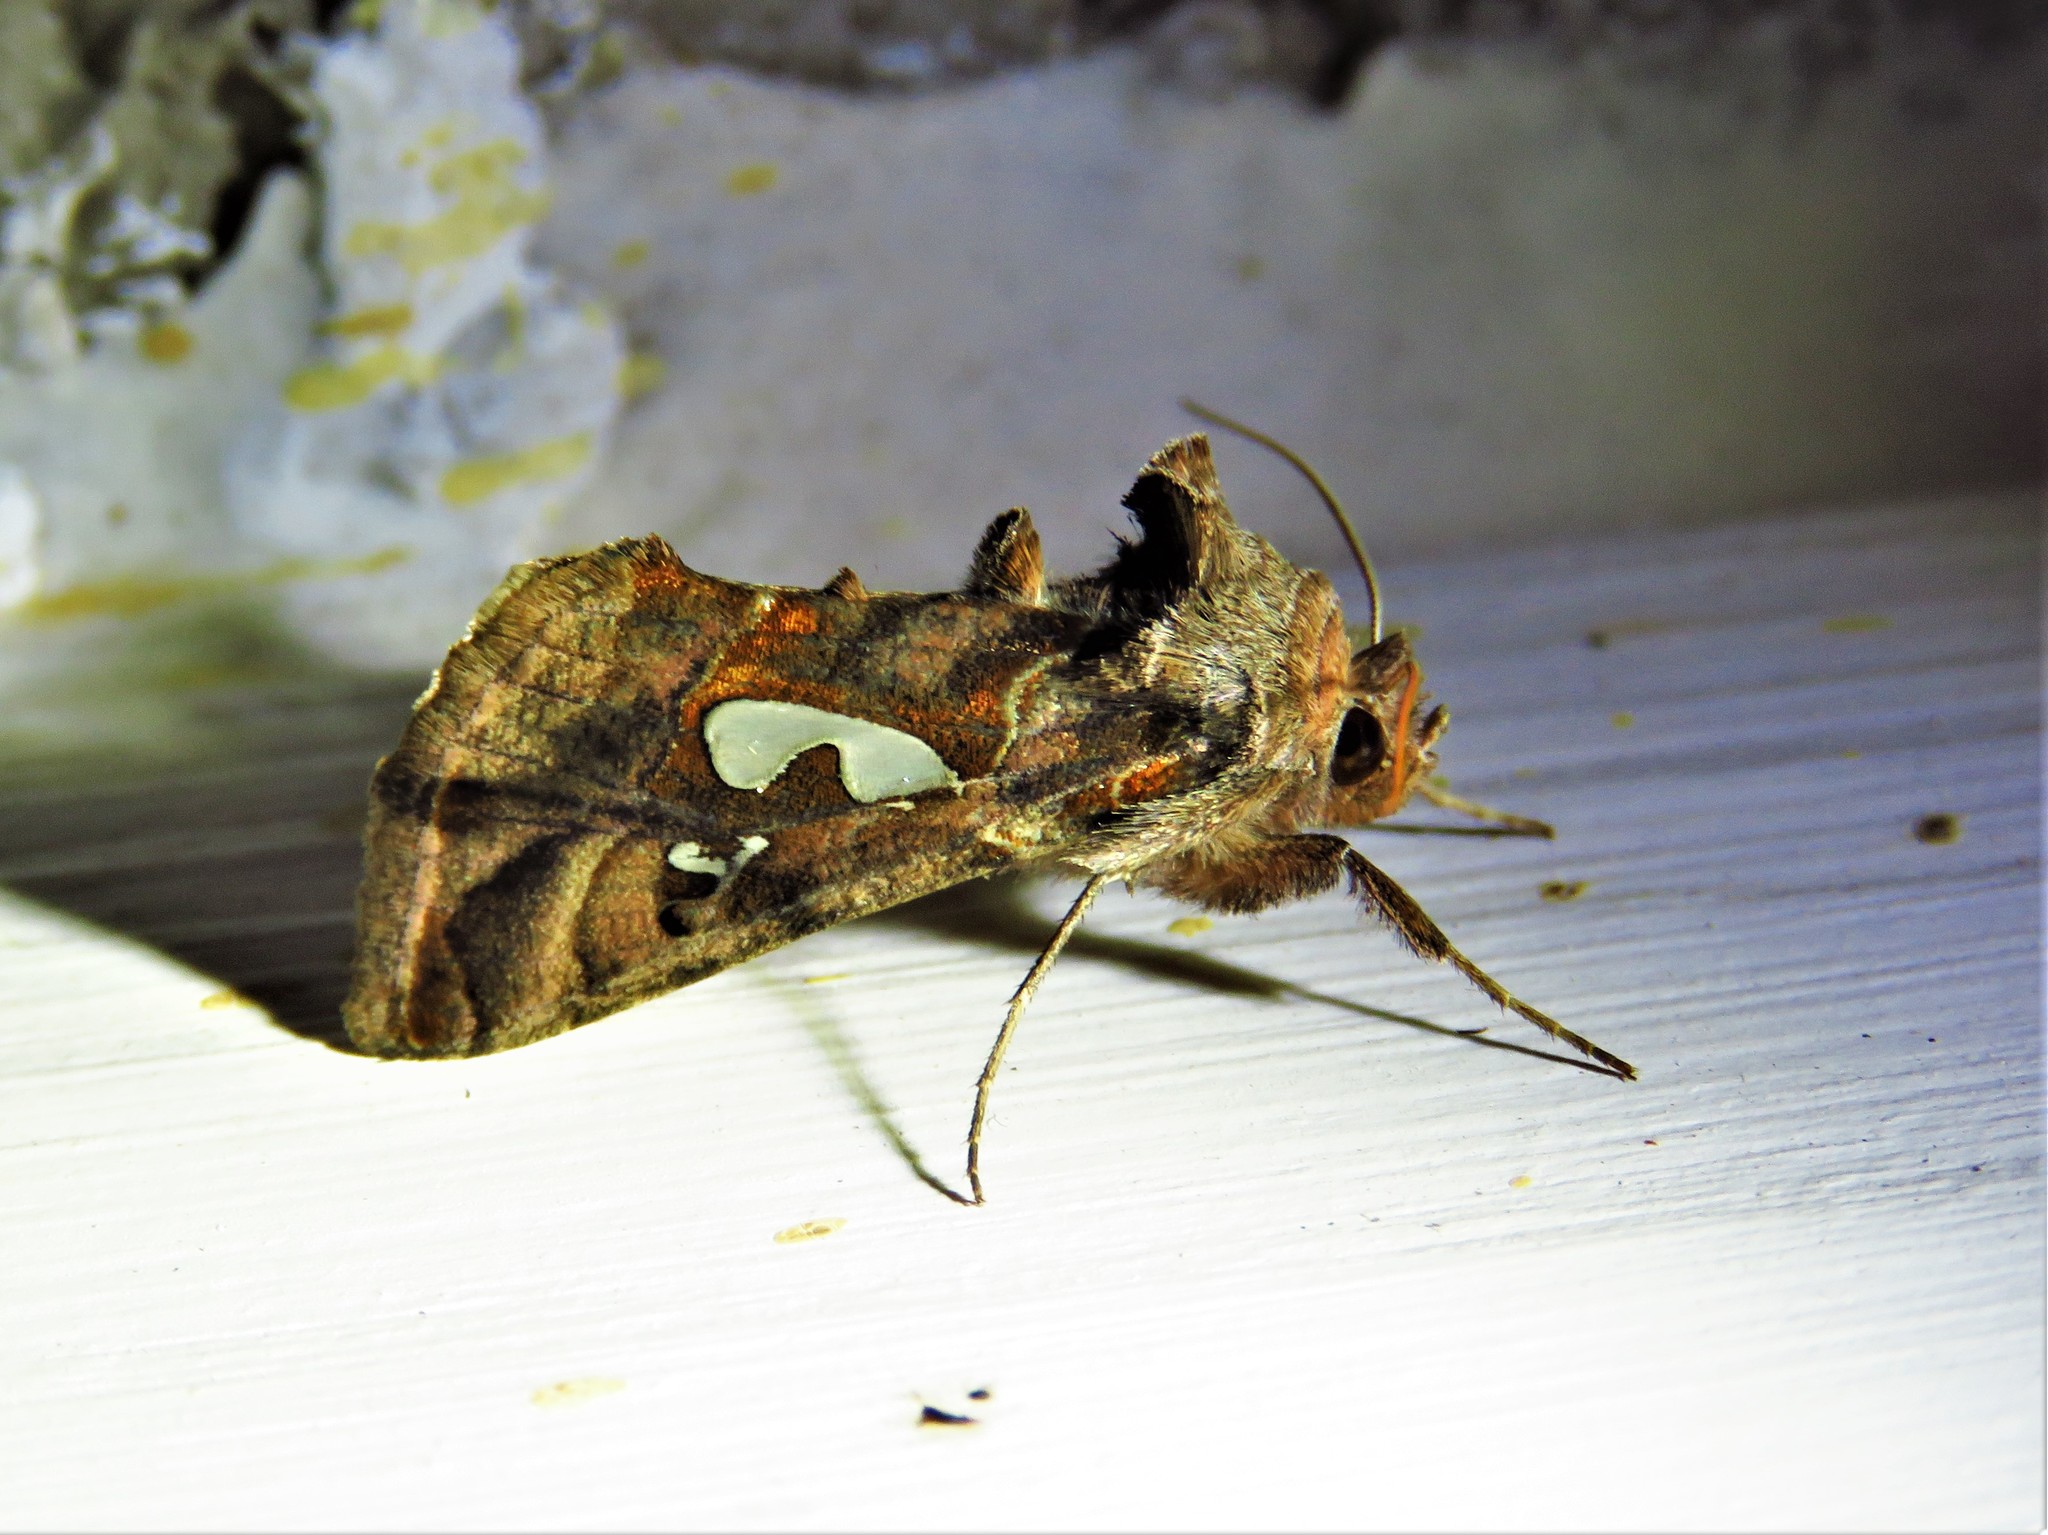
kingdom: Animalia
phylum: Arthropoda
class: Insecta
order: Lepidoptera
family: Noctuidae
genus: Megalographa
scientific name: Megalographa biloba
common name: Cutworm
